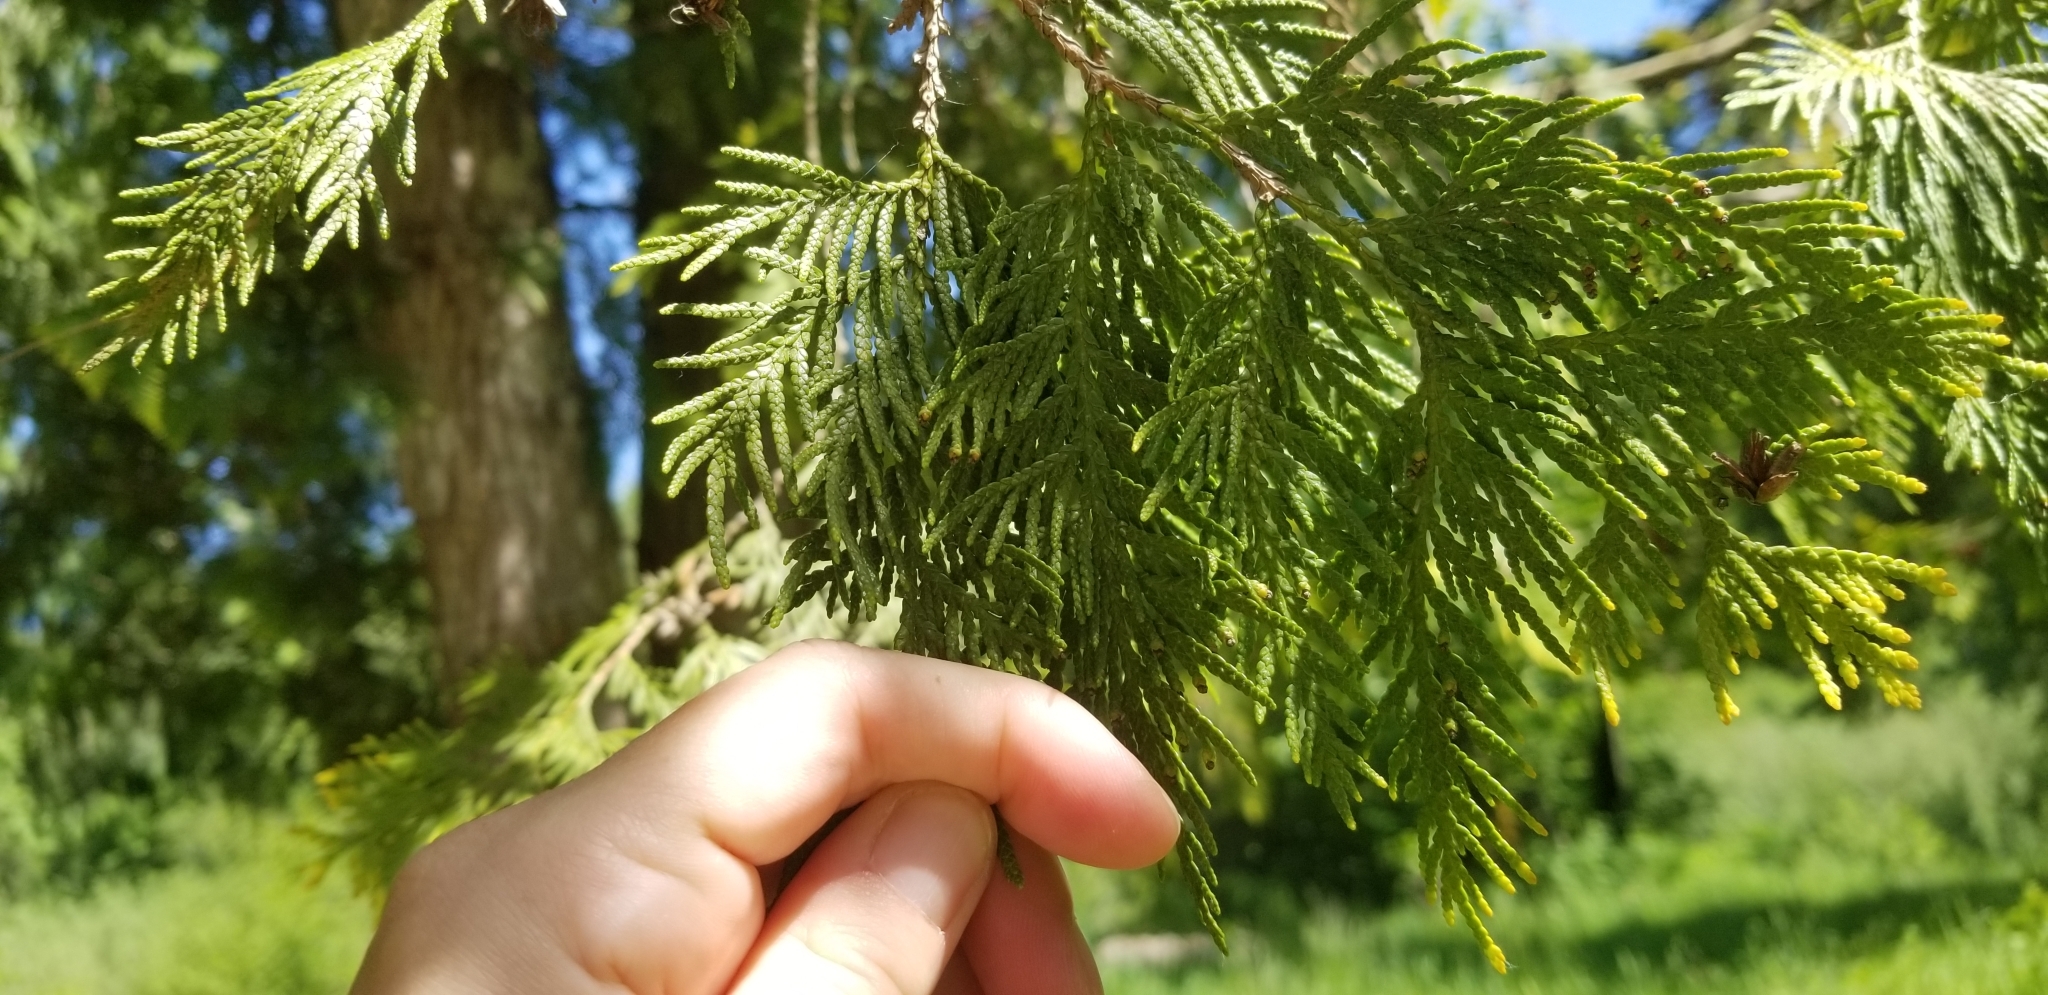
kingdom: Plantae
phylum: Tracheophyta
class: Pinopsida
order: Pinales
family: Cupressaceae
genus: Thuja
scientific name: Thuja plicata
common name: Western red-cedar
